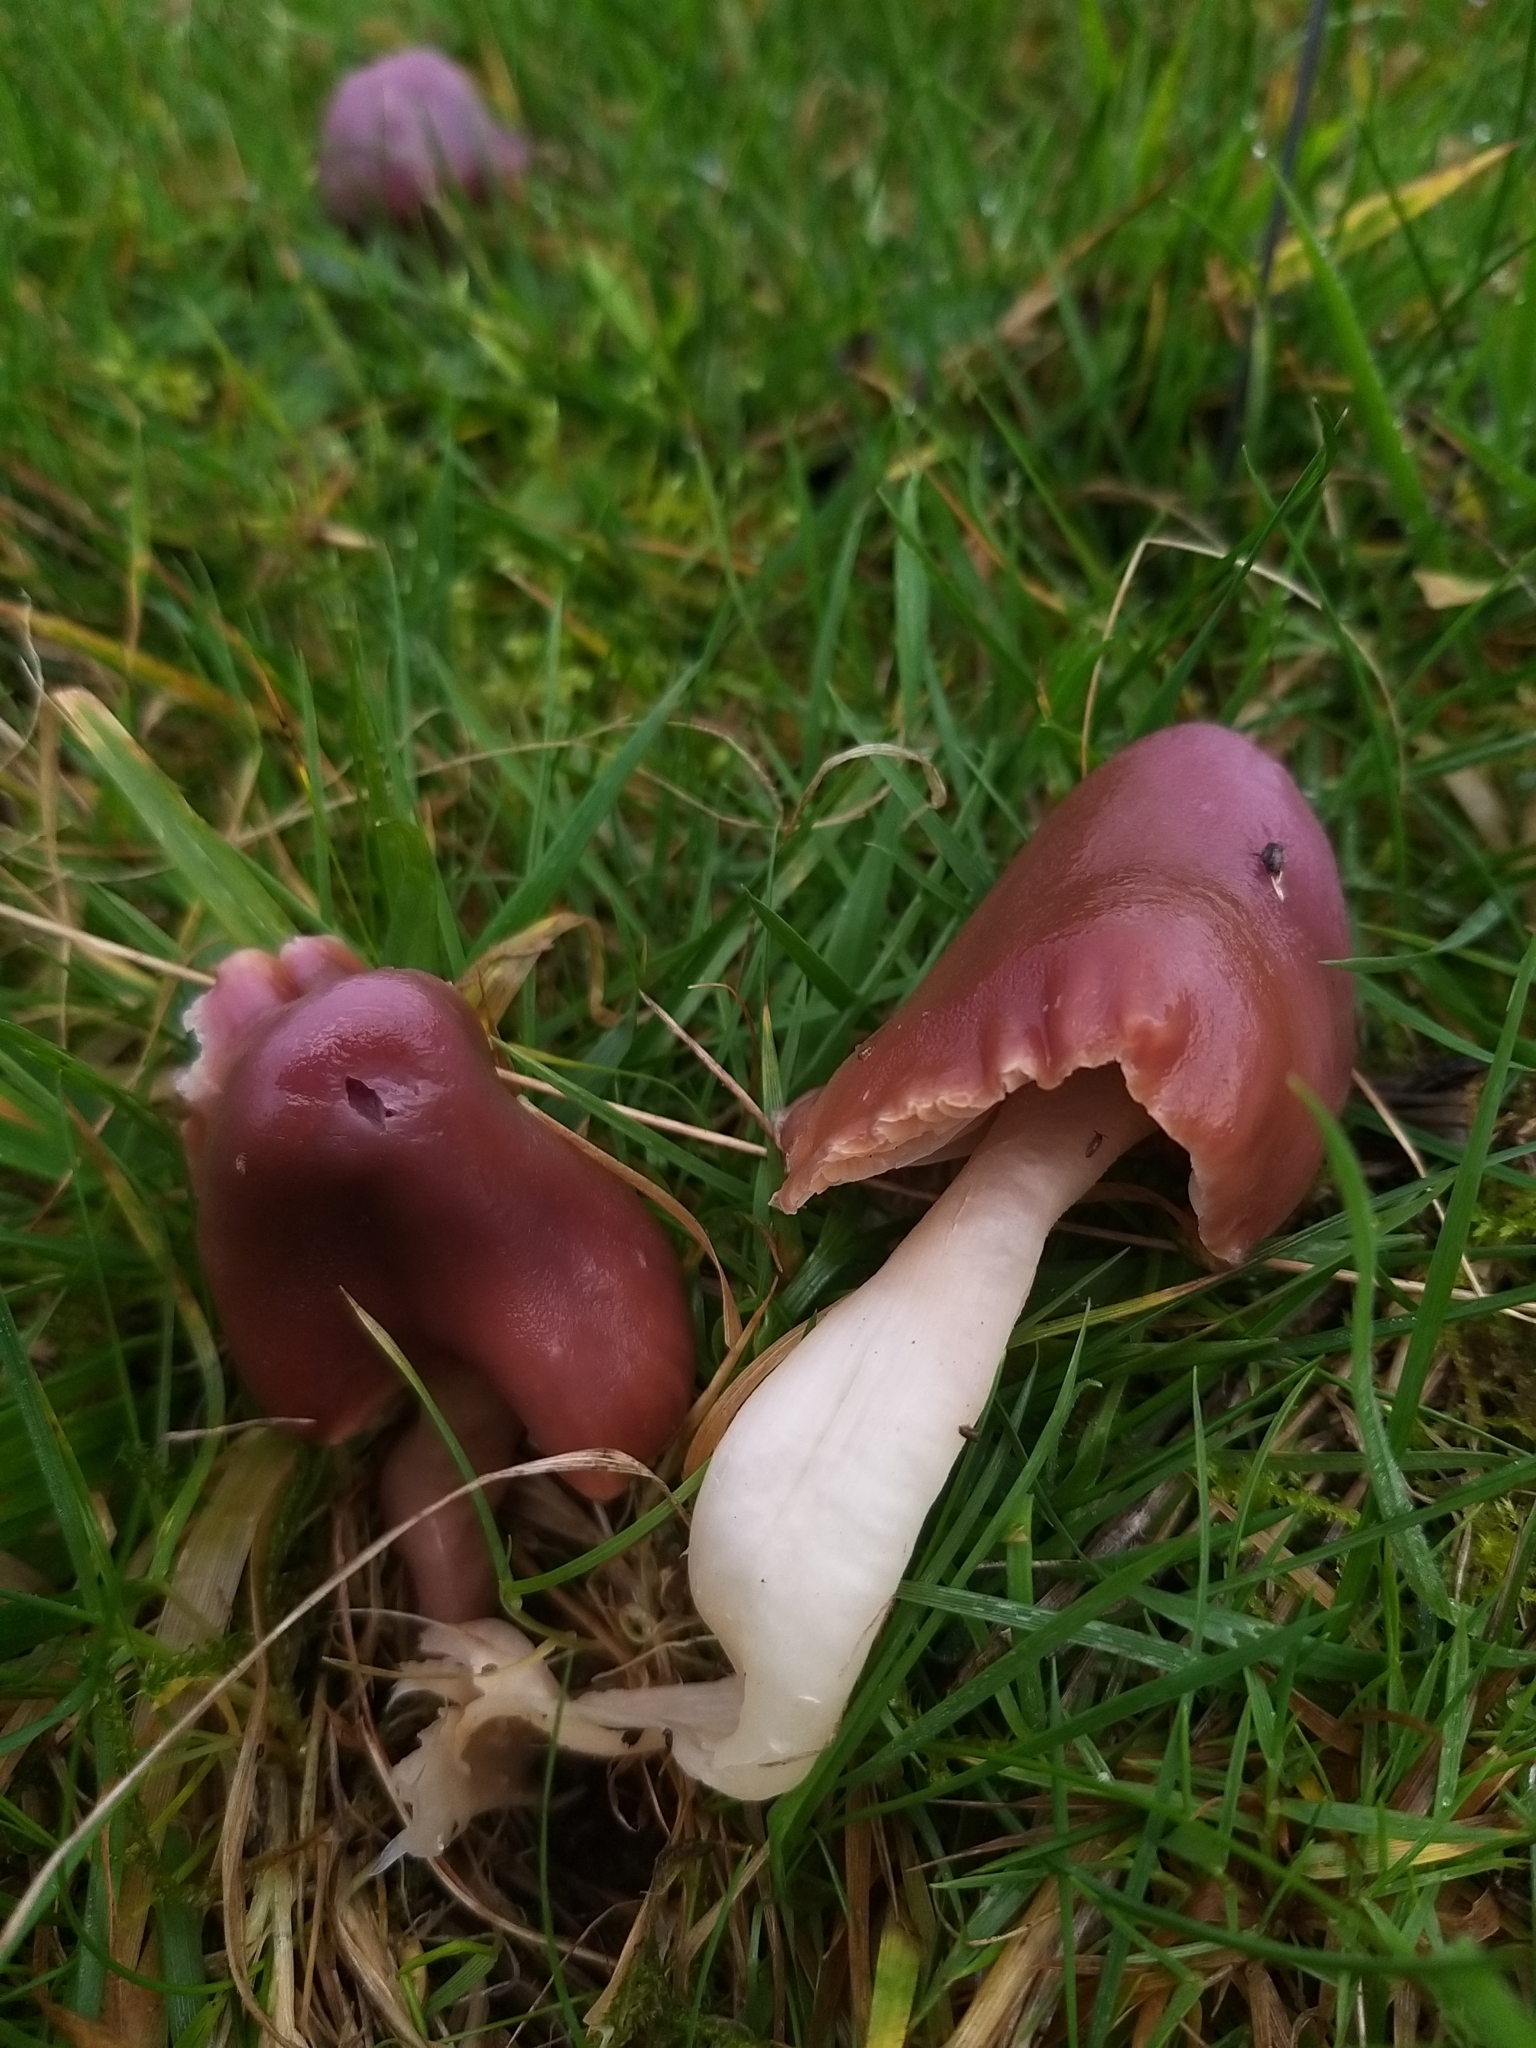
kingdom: Fungi
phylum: Basidiomycota
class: Agaricomycetes
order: Agaricales
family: Hygrophoraceae
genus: Gliophorus
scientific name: Gliophorus reginae
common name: Jubilee waxcap
